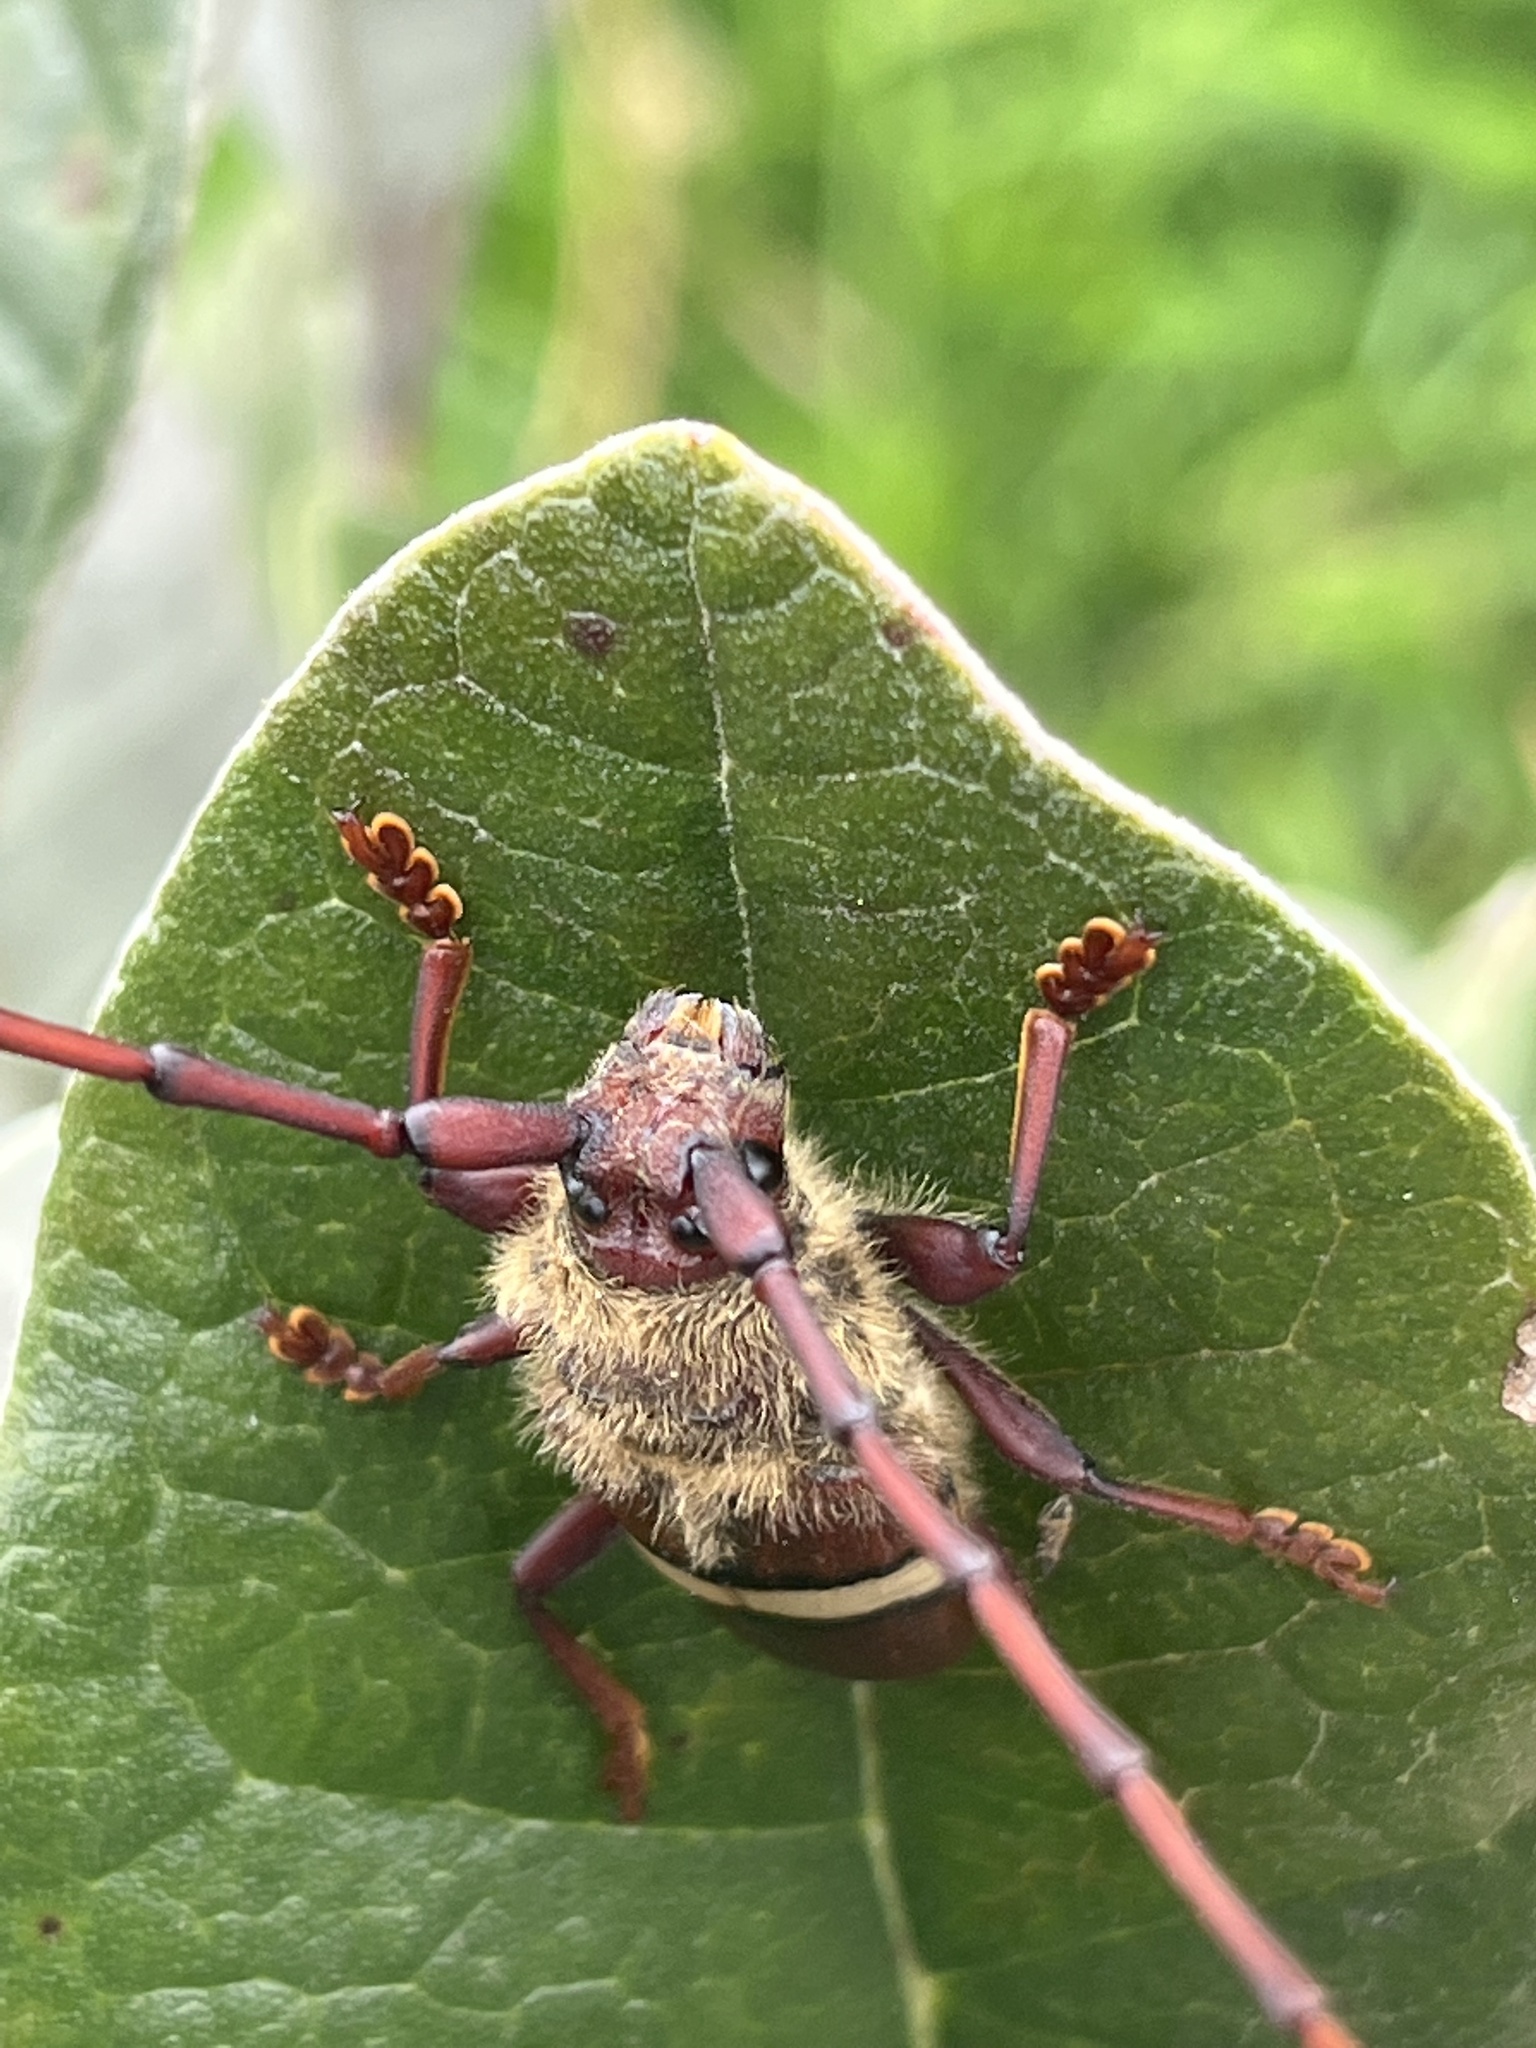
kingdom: Animalia
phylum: Arthropoda
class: Insecta
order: Coleoptera
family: Cerambycidae
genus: Deretrachys
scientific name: Deretrachys juvencus
